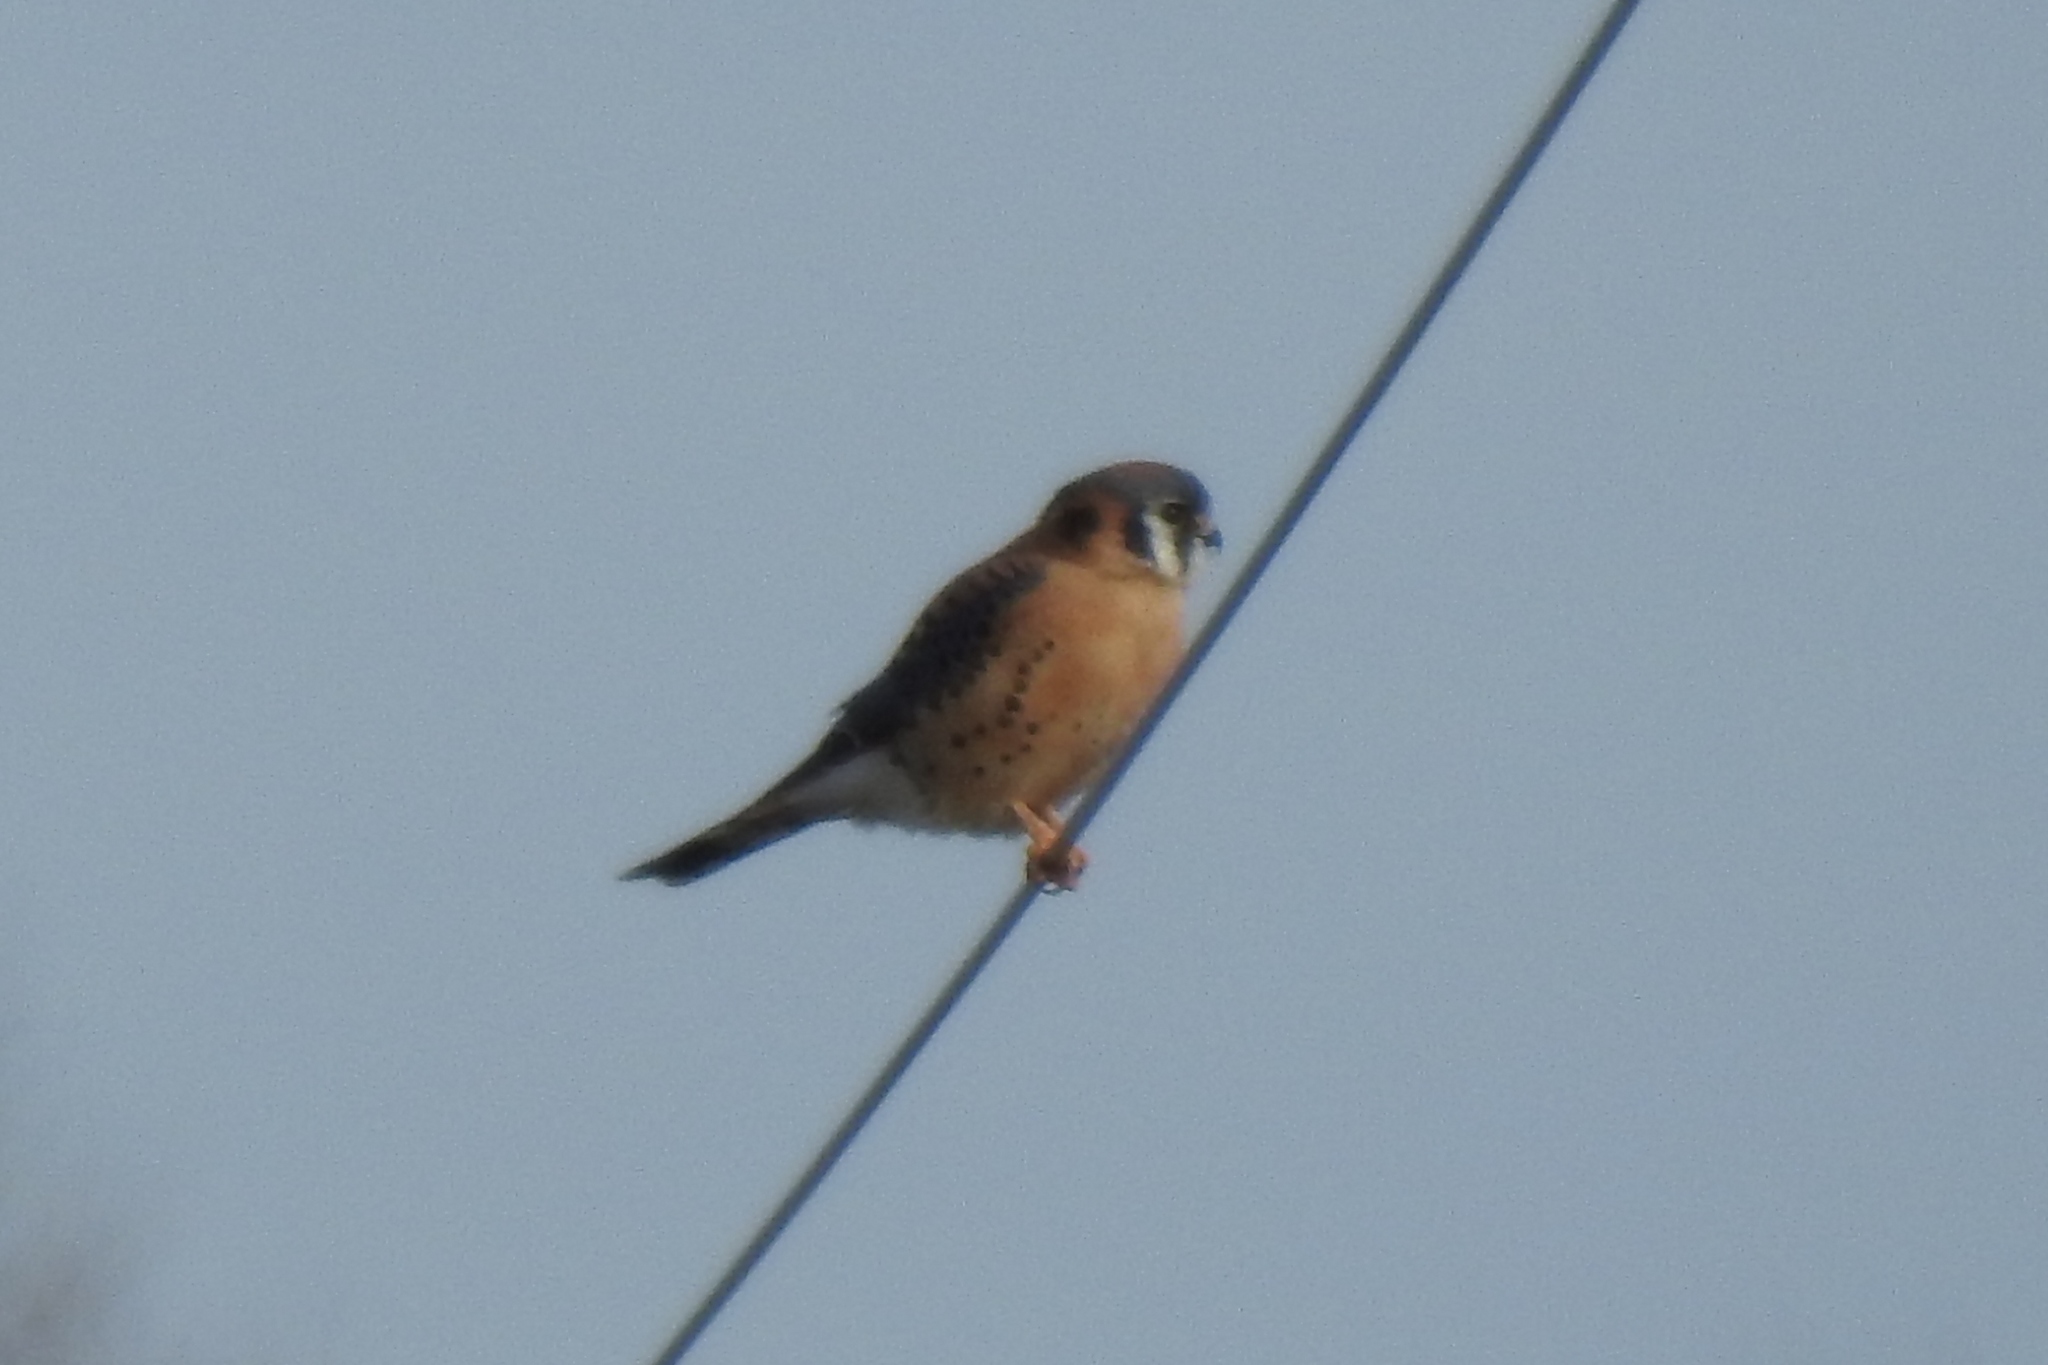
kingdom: Animalia
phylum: Chordata
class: Aves
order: Falconiformes
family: Falconidae
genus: Falco
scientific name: Falco sparverius
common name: American kestrel
